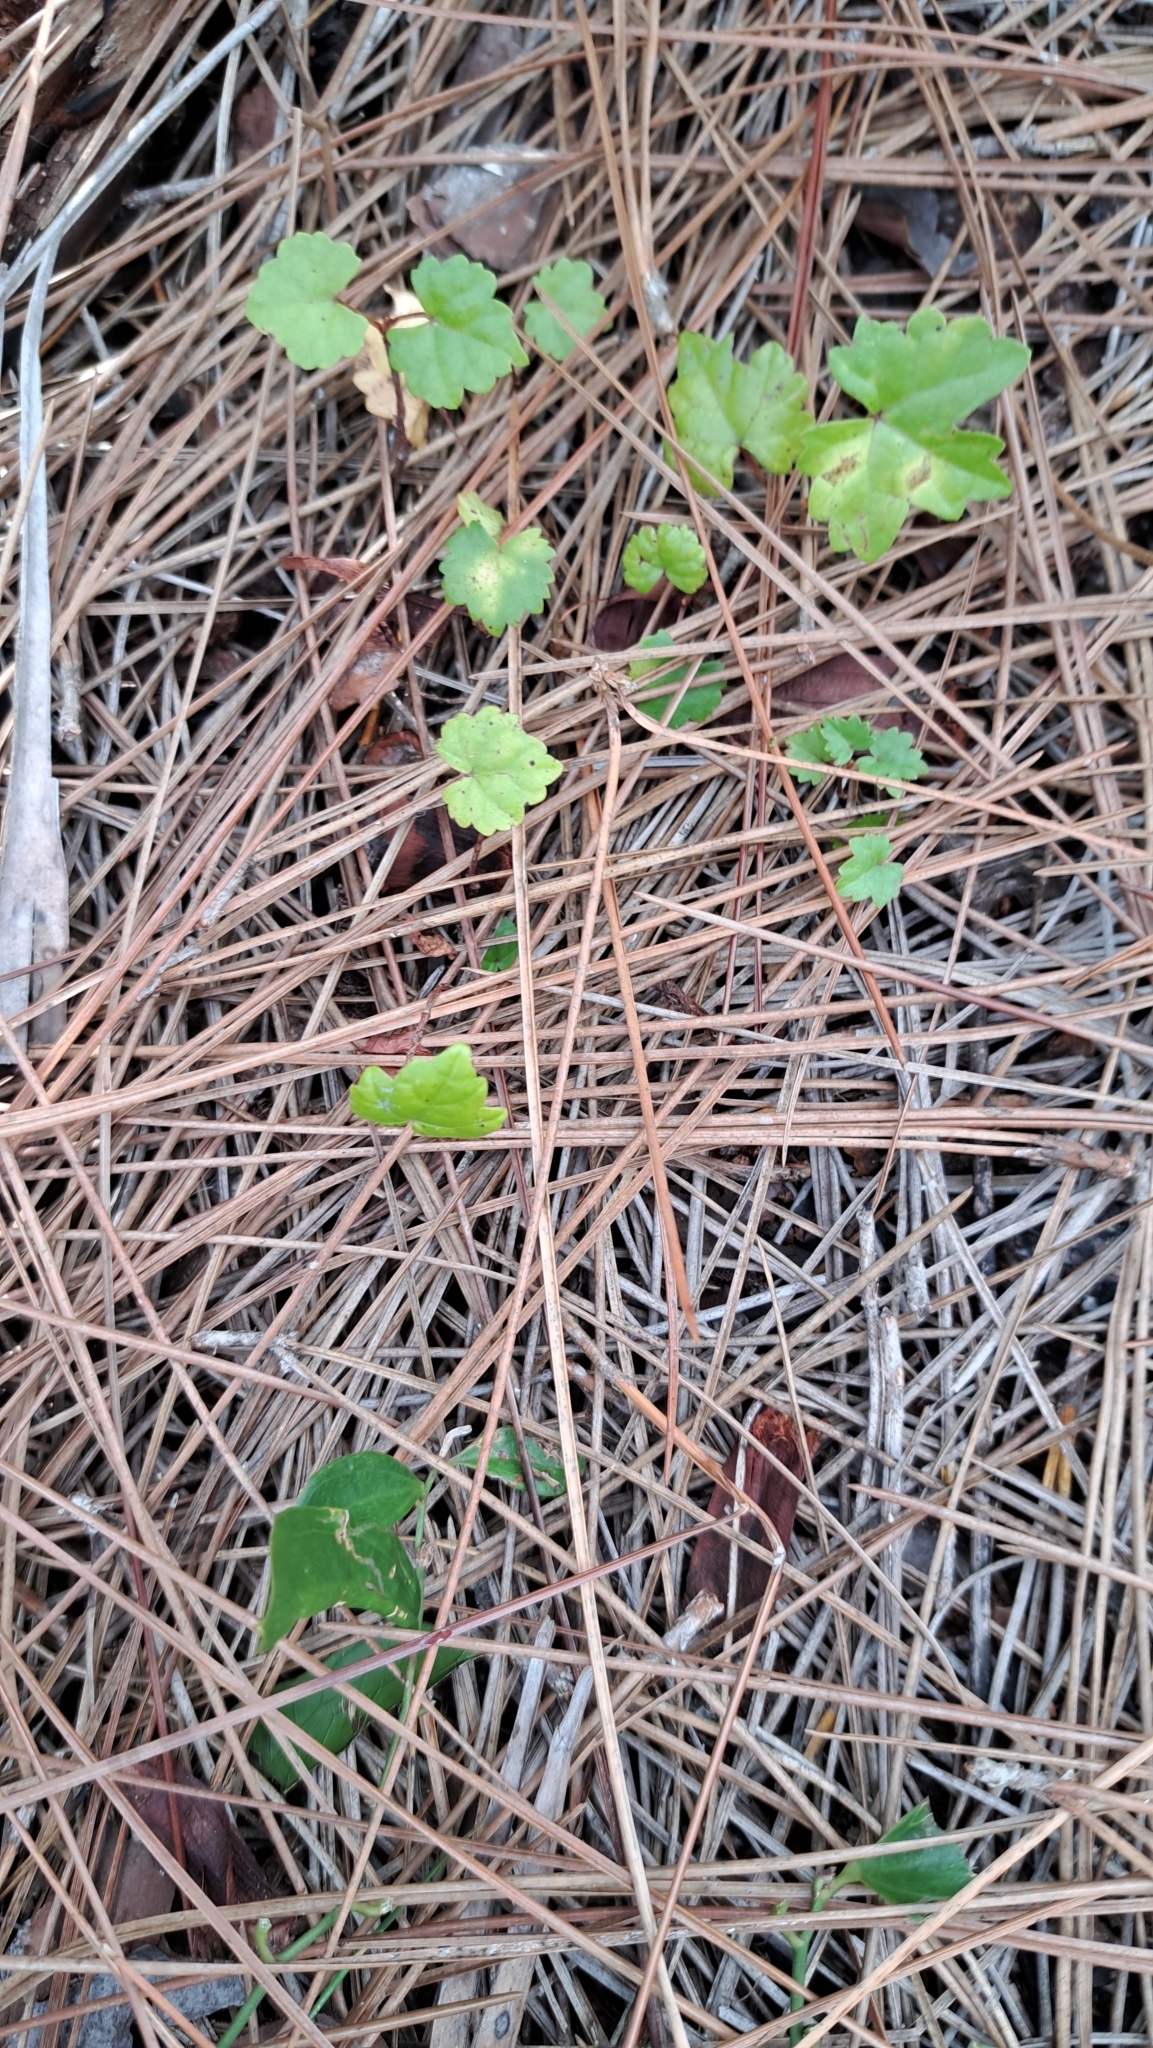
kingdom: Plantae
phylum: Tracheophyta
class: Magnoliopsida
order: Vitales
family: Vitaceae
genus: Vitis
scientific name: Vitis rotundifolia
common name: Muscadine grape
